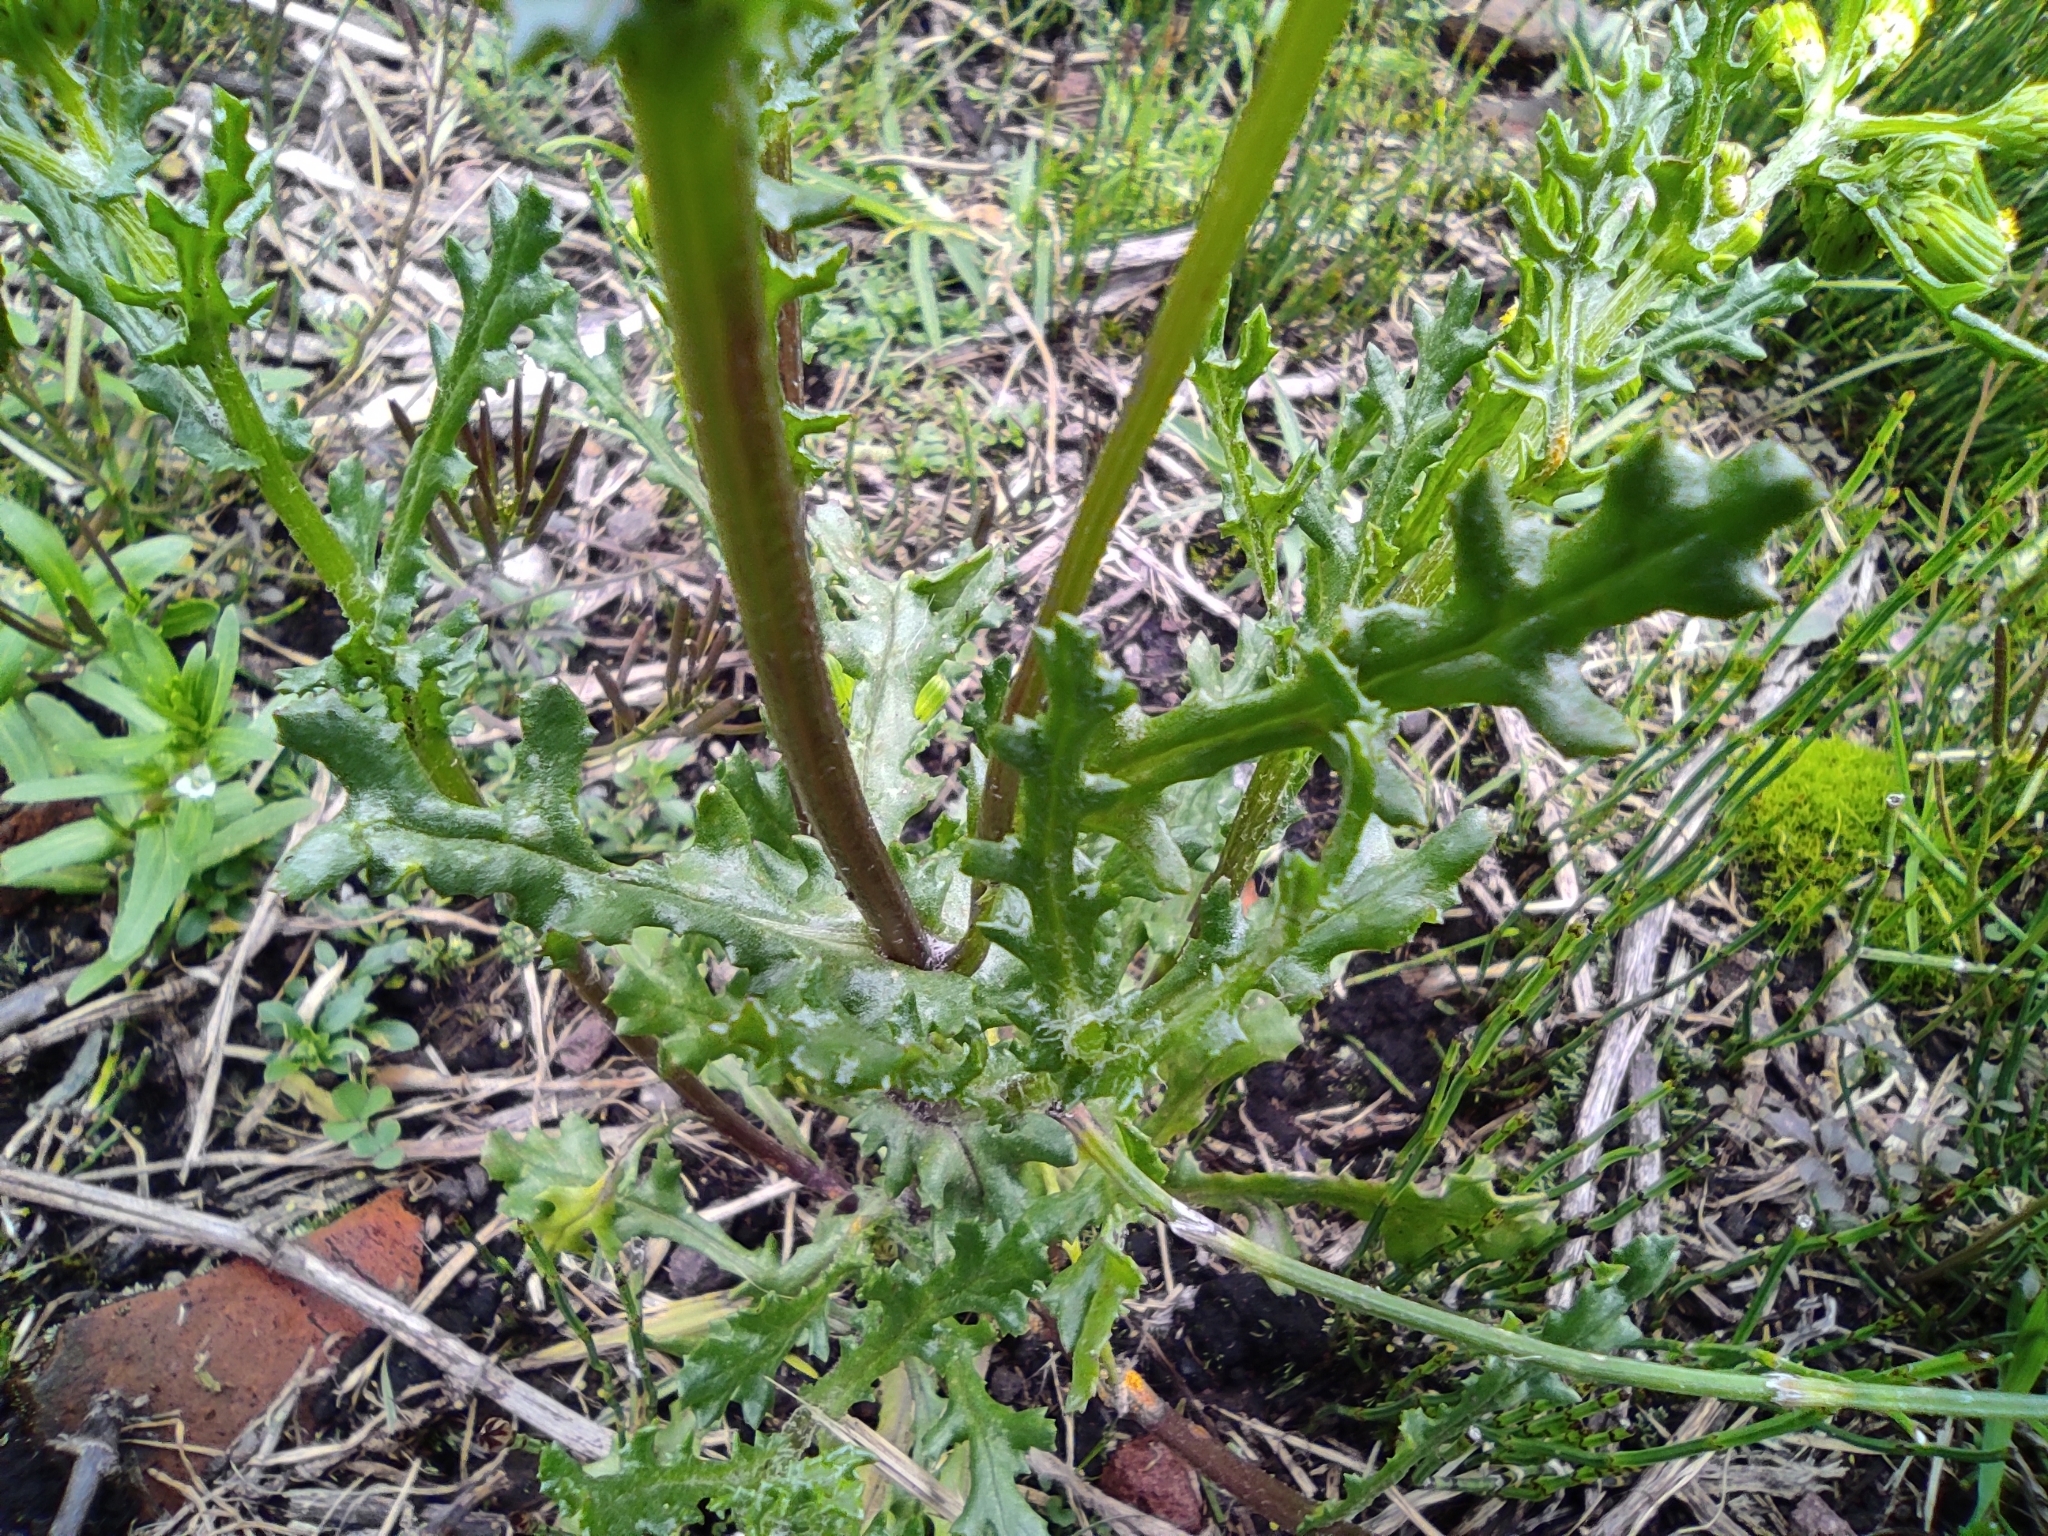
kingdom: Plantae
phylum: Tracheophyta
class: Magnoliopsida
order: Asterales
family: Asteraceae
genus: Senecio
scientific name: Senecio vulgaris
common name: Old-man-in-the-spring
